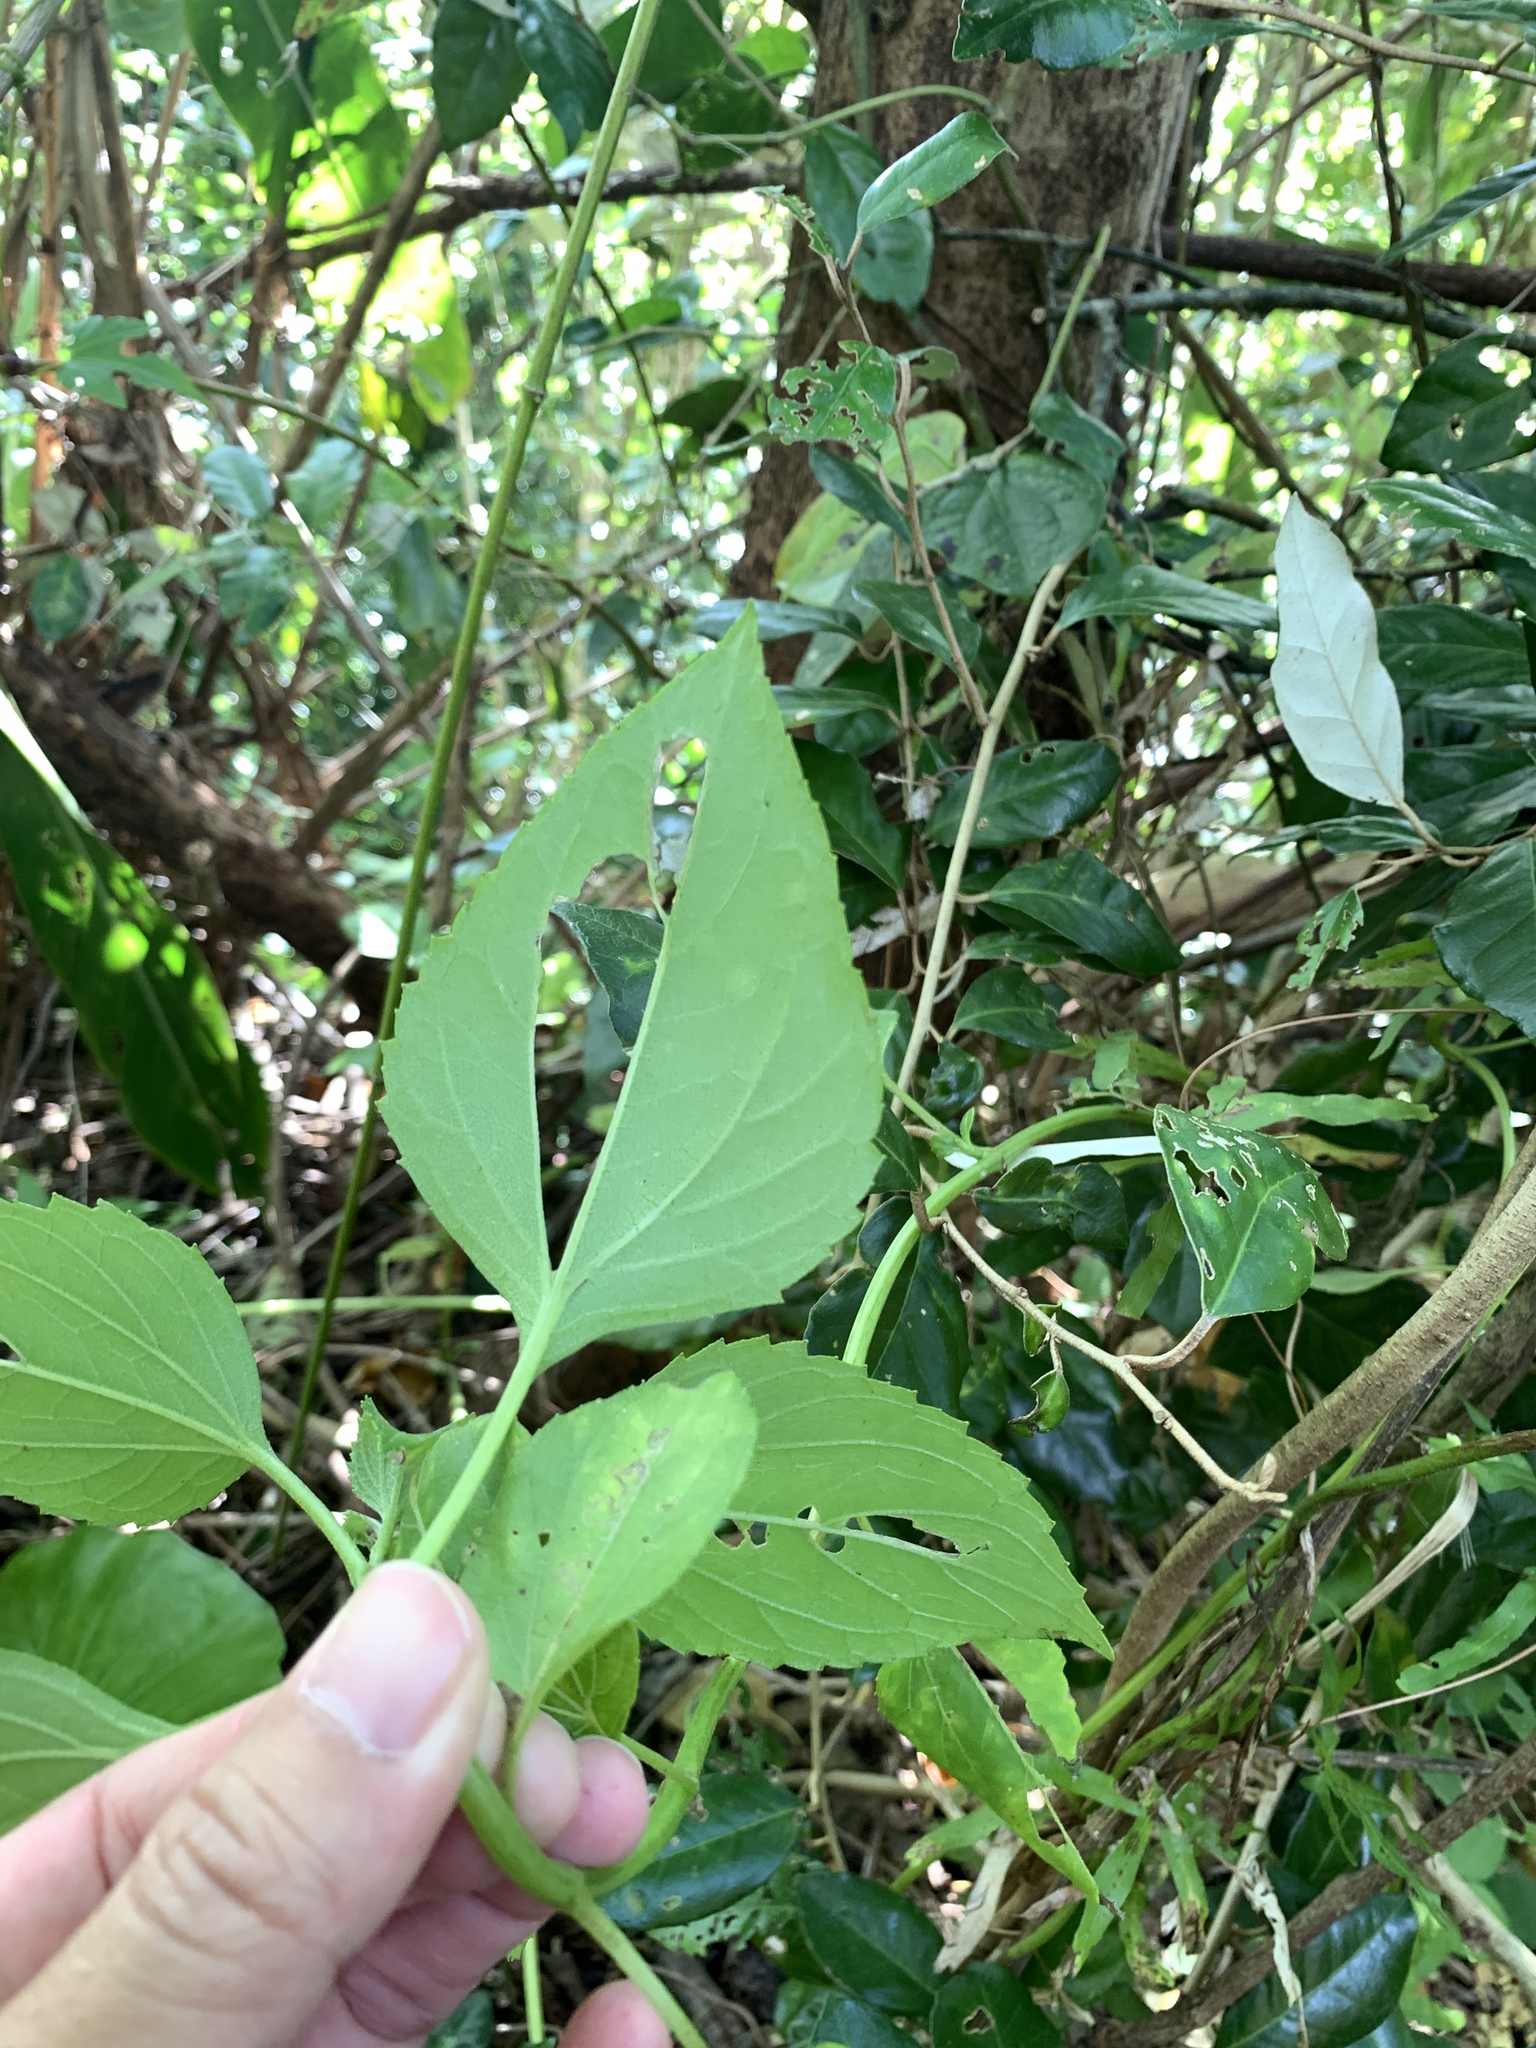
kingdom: Plantae
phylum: Tracheophyta
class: Magnoliopsida
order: Asterales
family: Asteraceae
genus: Wollastonia
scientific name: Wollastonia biflora
